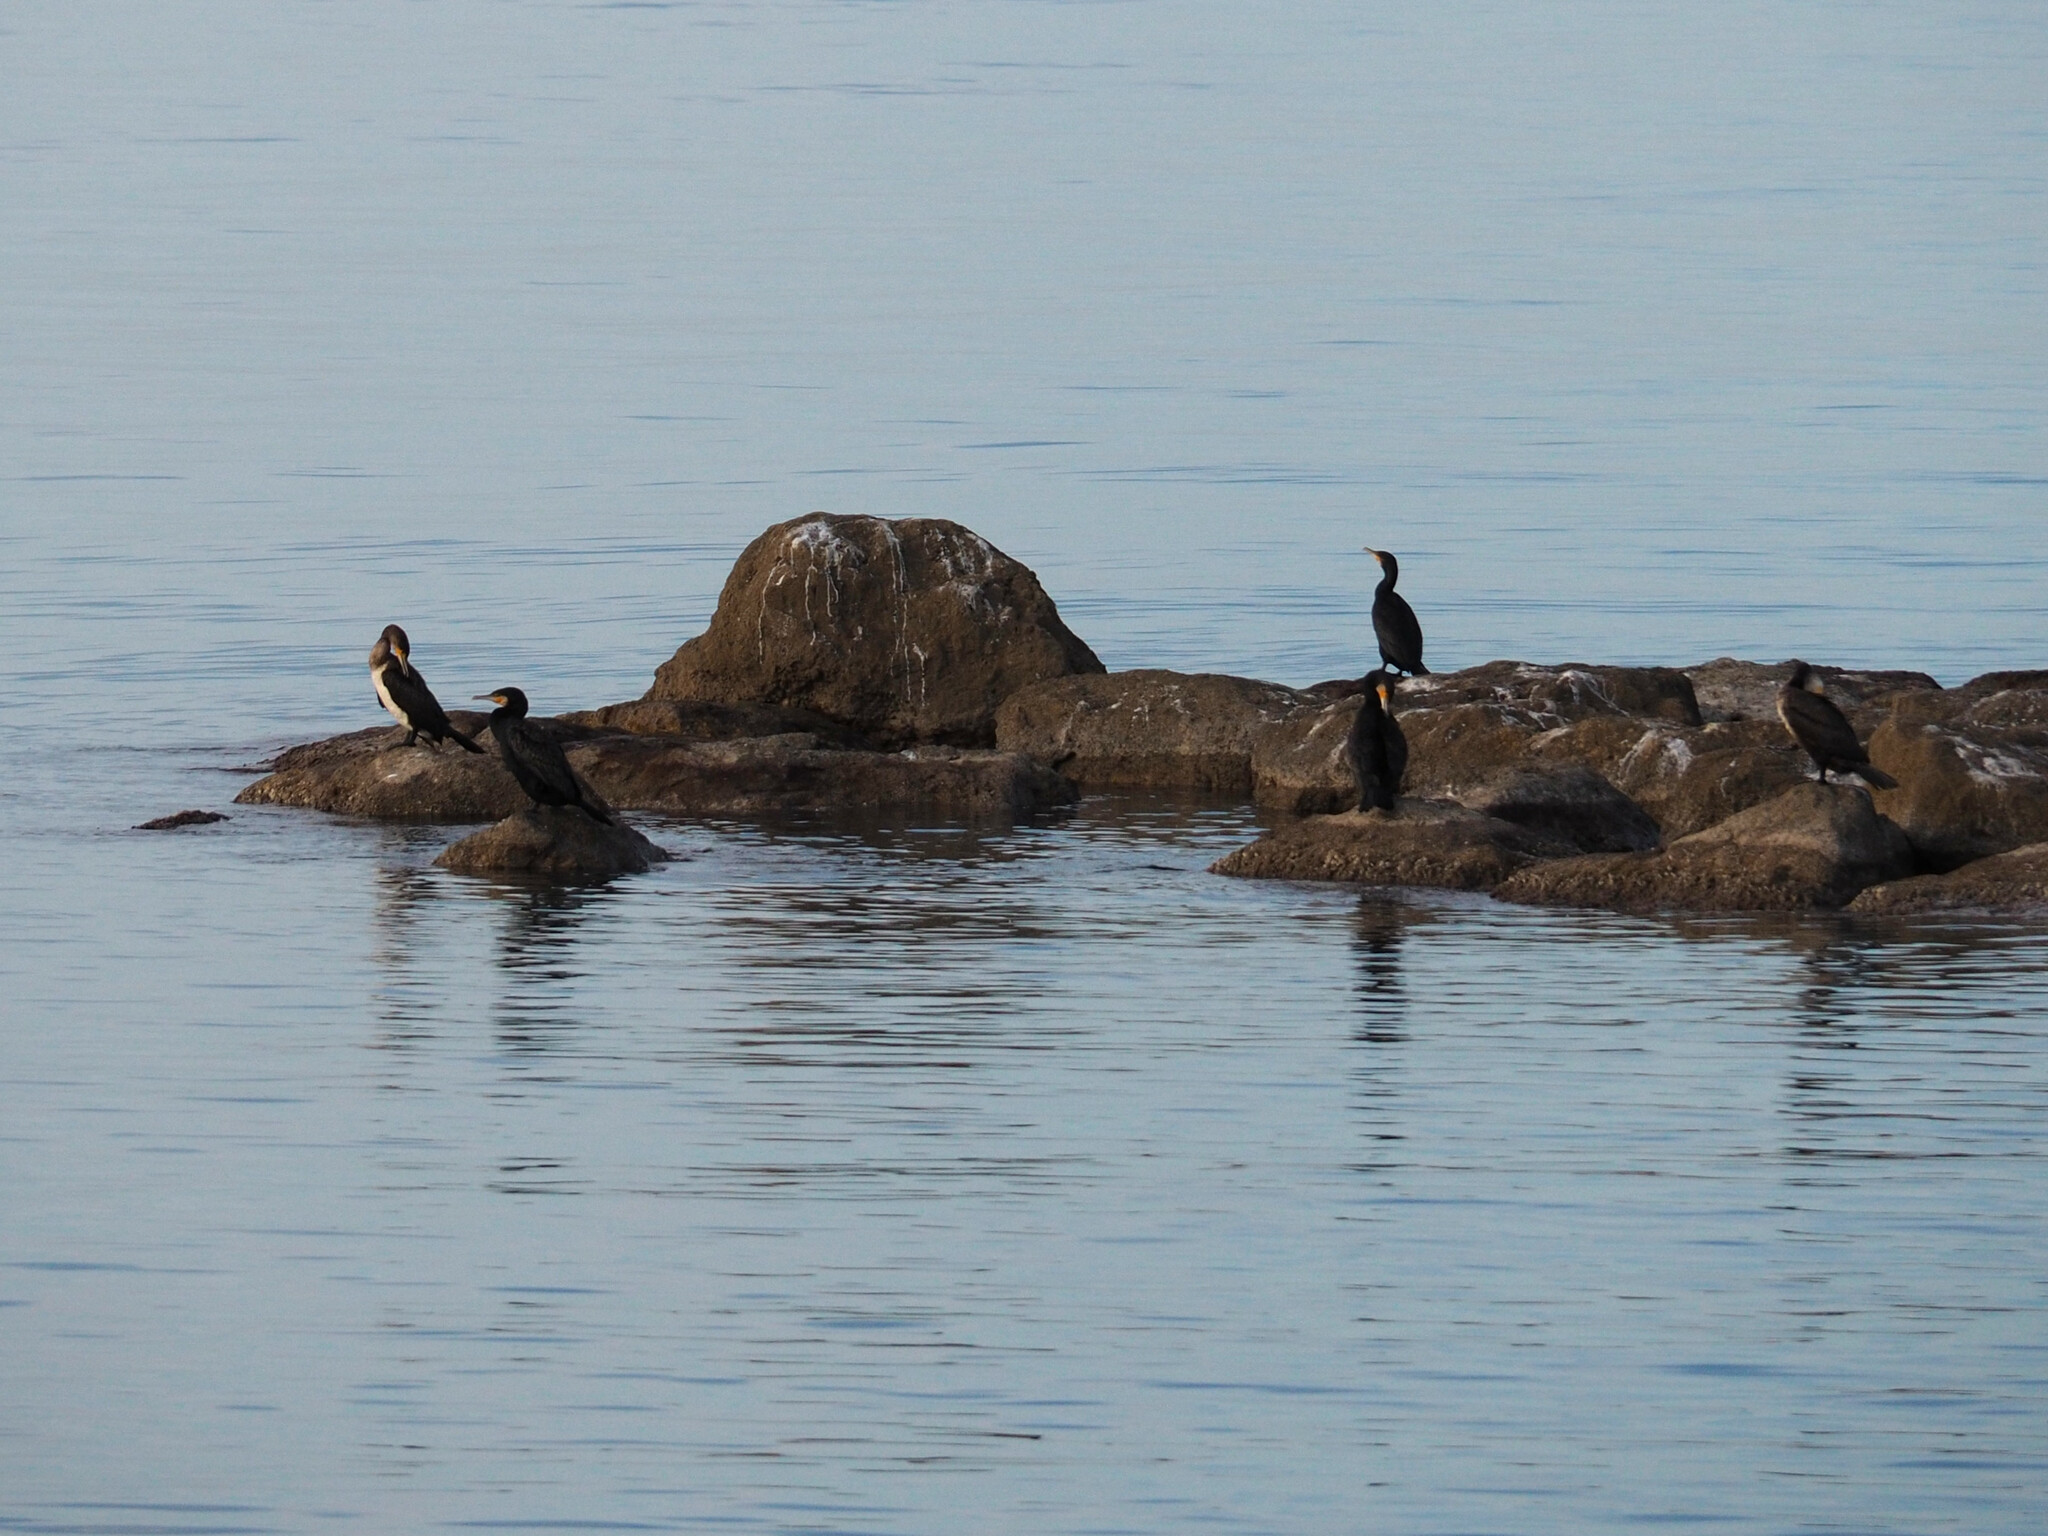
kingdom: Animalia
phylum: Chordata
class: Aves
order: Suliformes
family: Phalacrocoracidae
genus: Phalacrocorax
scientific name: Phalacrocorax carbo
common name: Great cormorant
